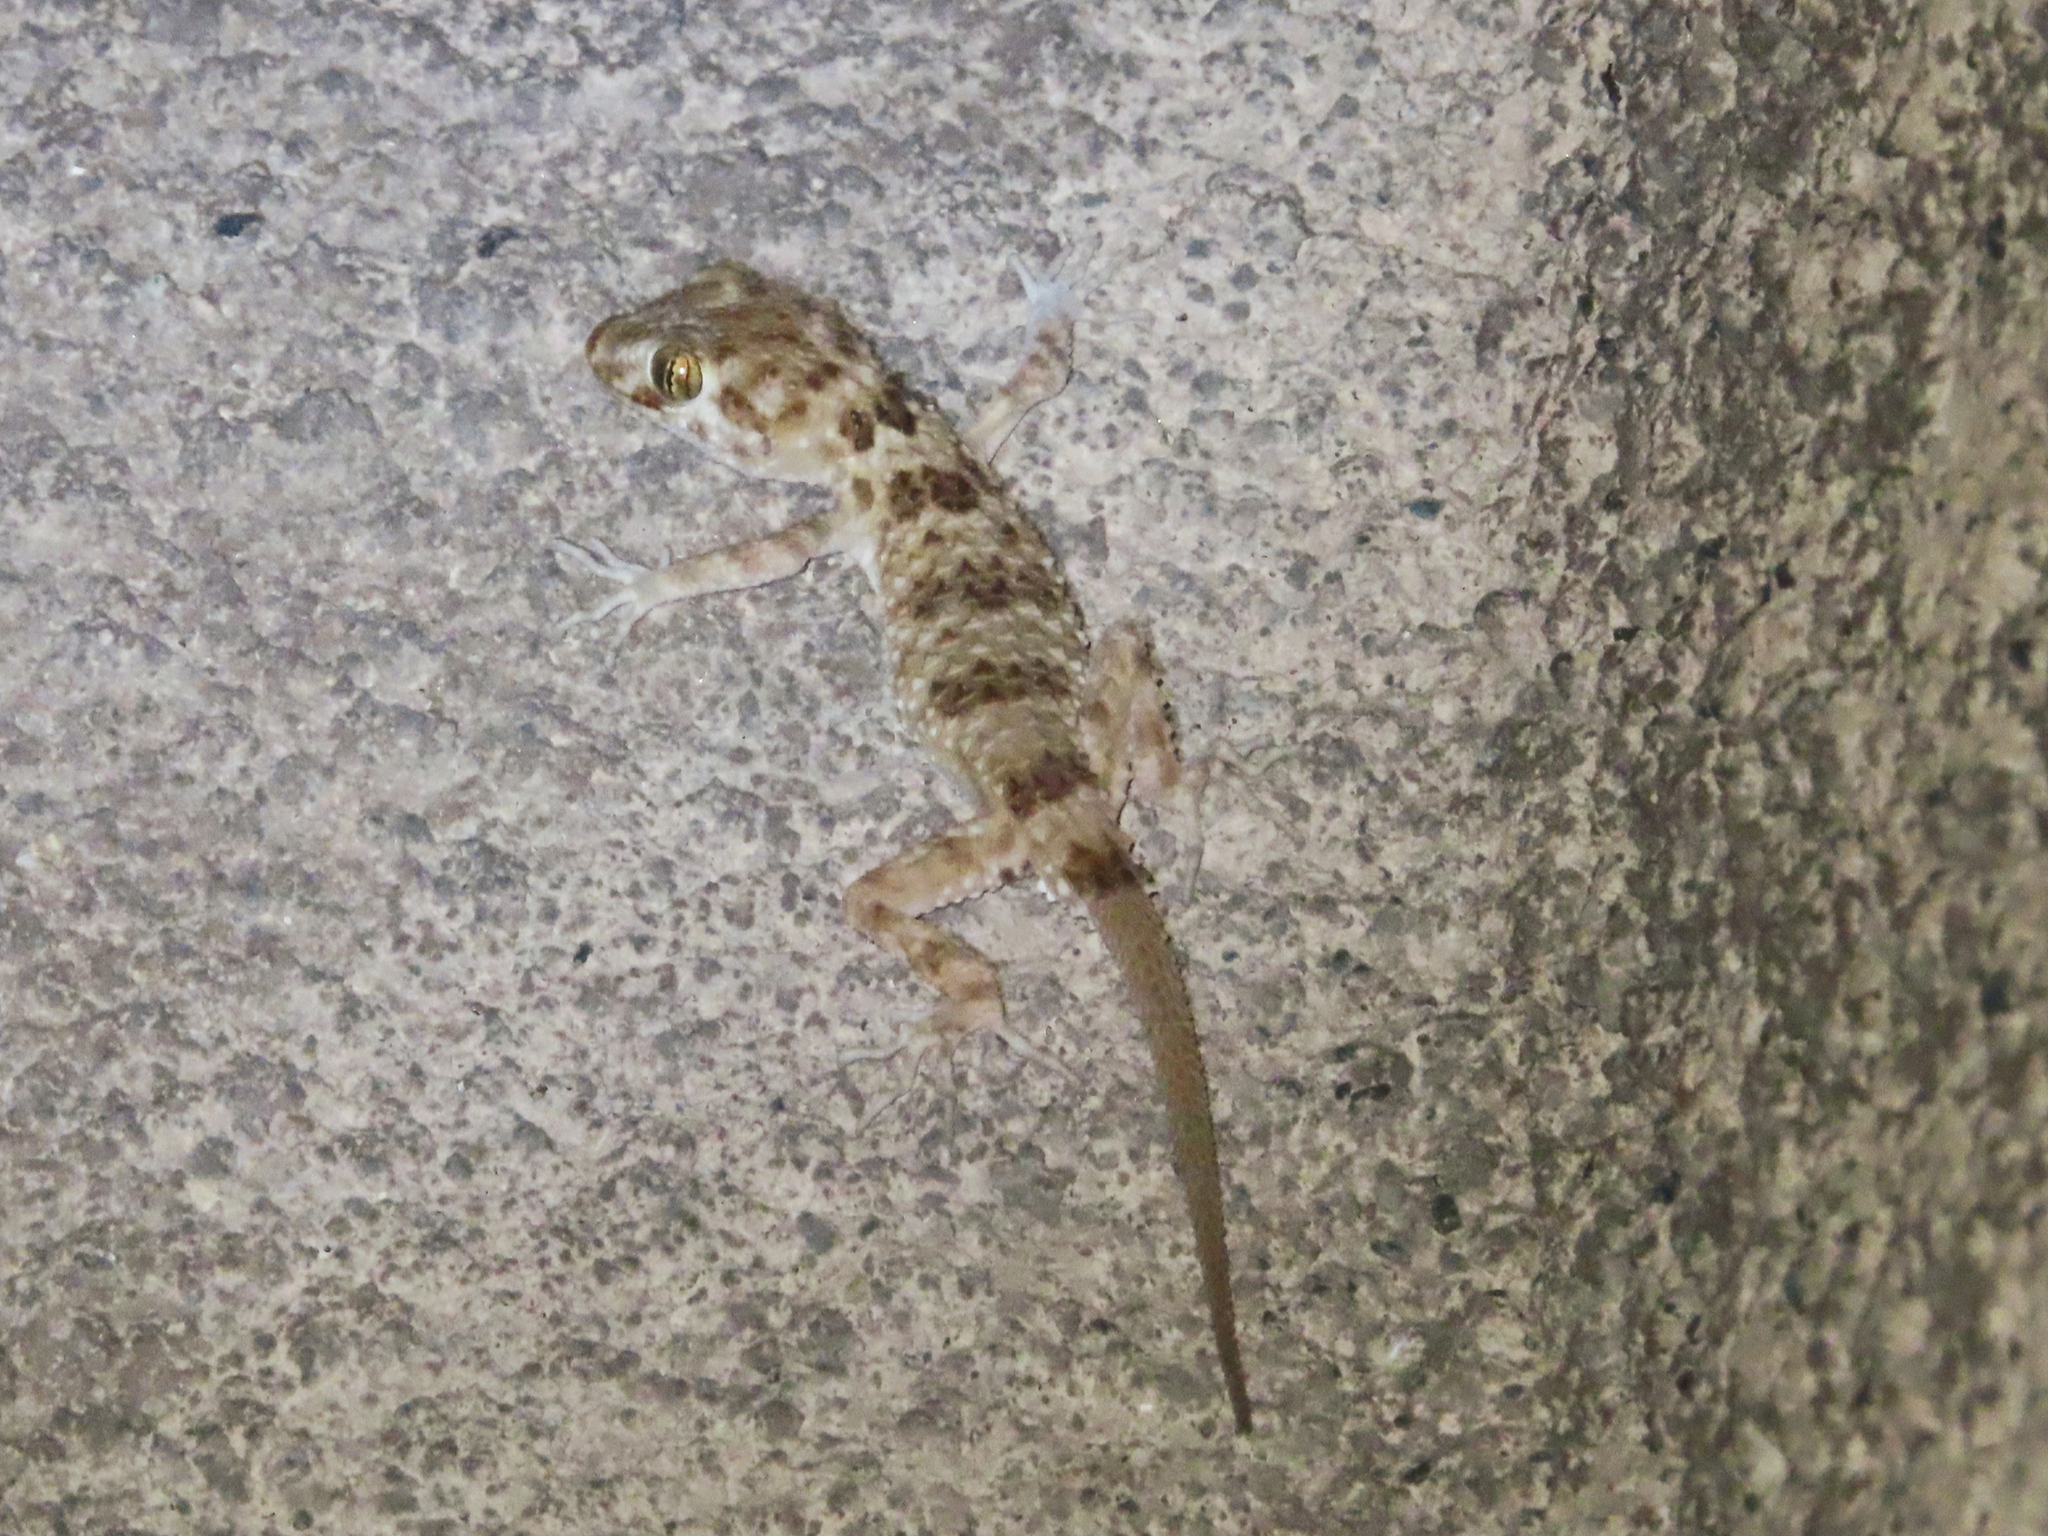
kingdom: Animalia
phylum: Chordata
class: Squamata
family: Gekkonidae
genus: Tenuidactylus
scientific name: Tenuidactylus caspius
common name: Caspian bent-toed gecko
